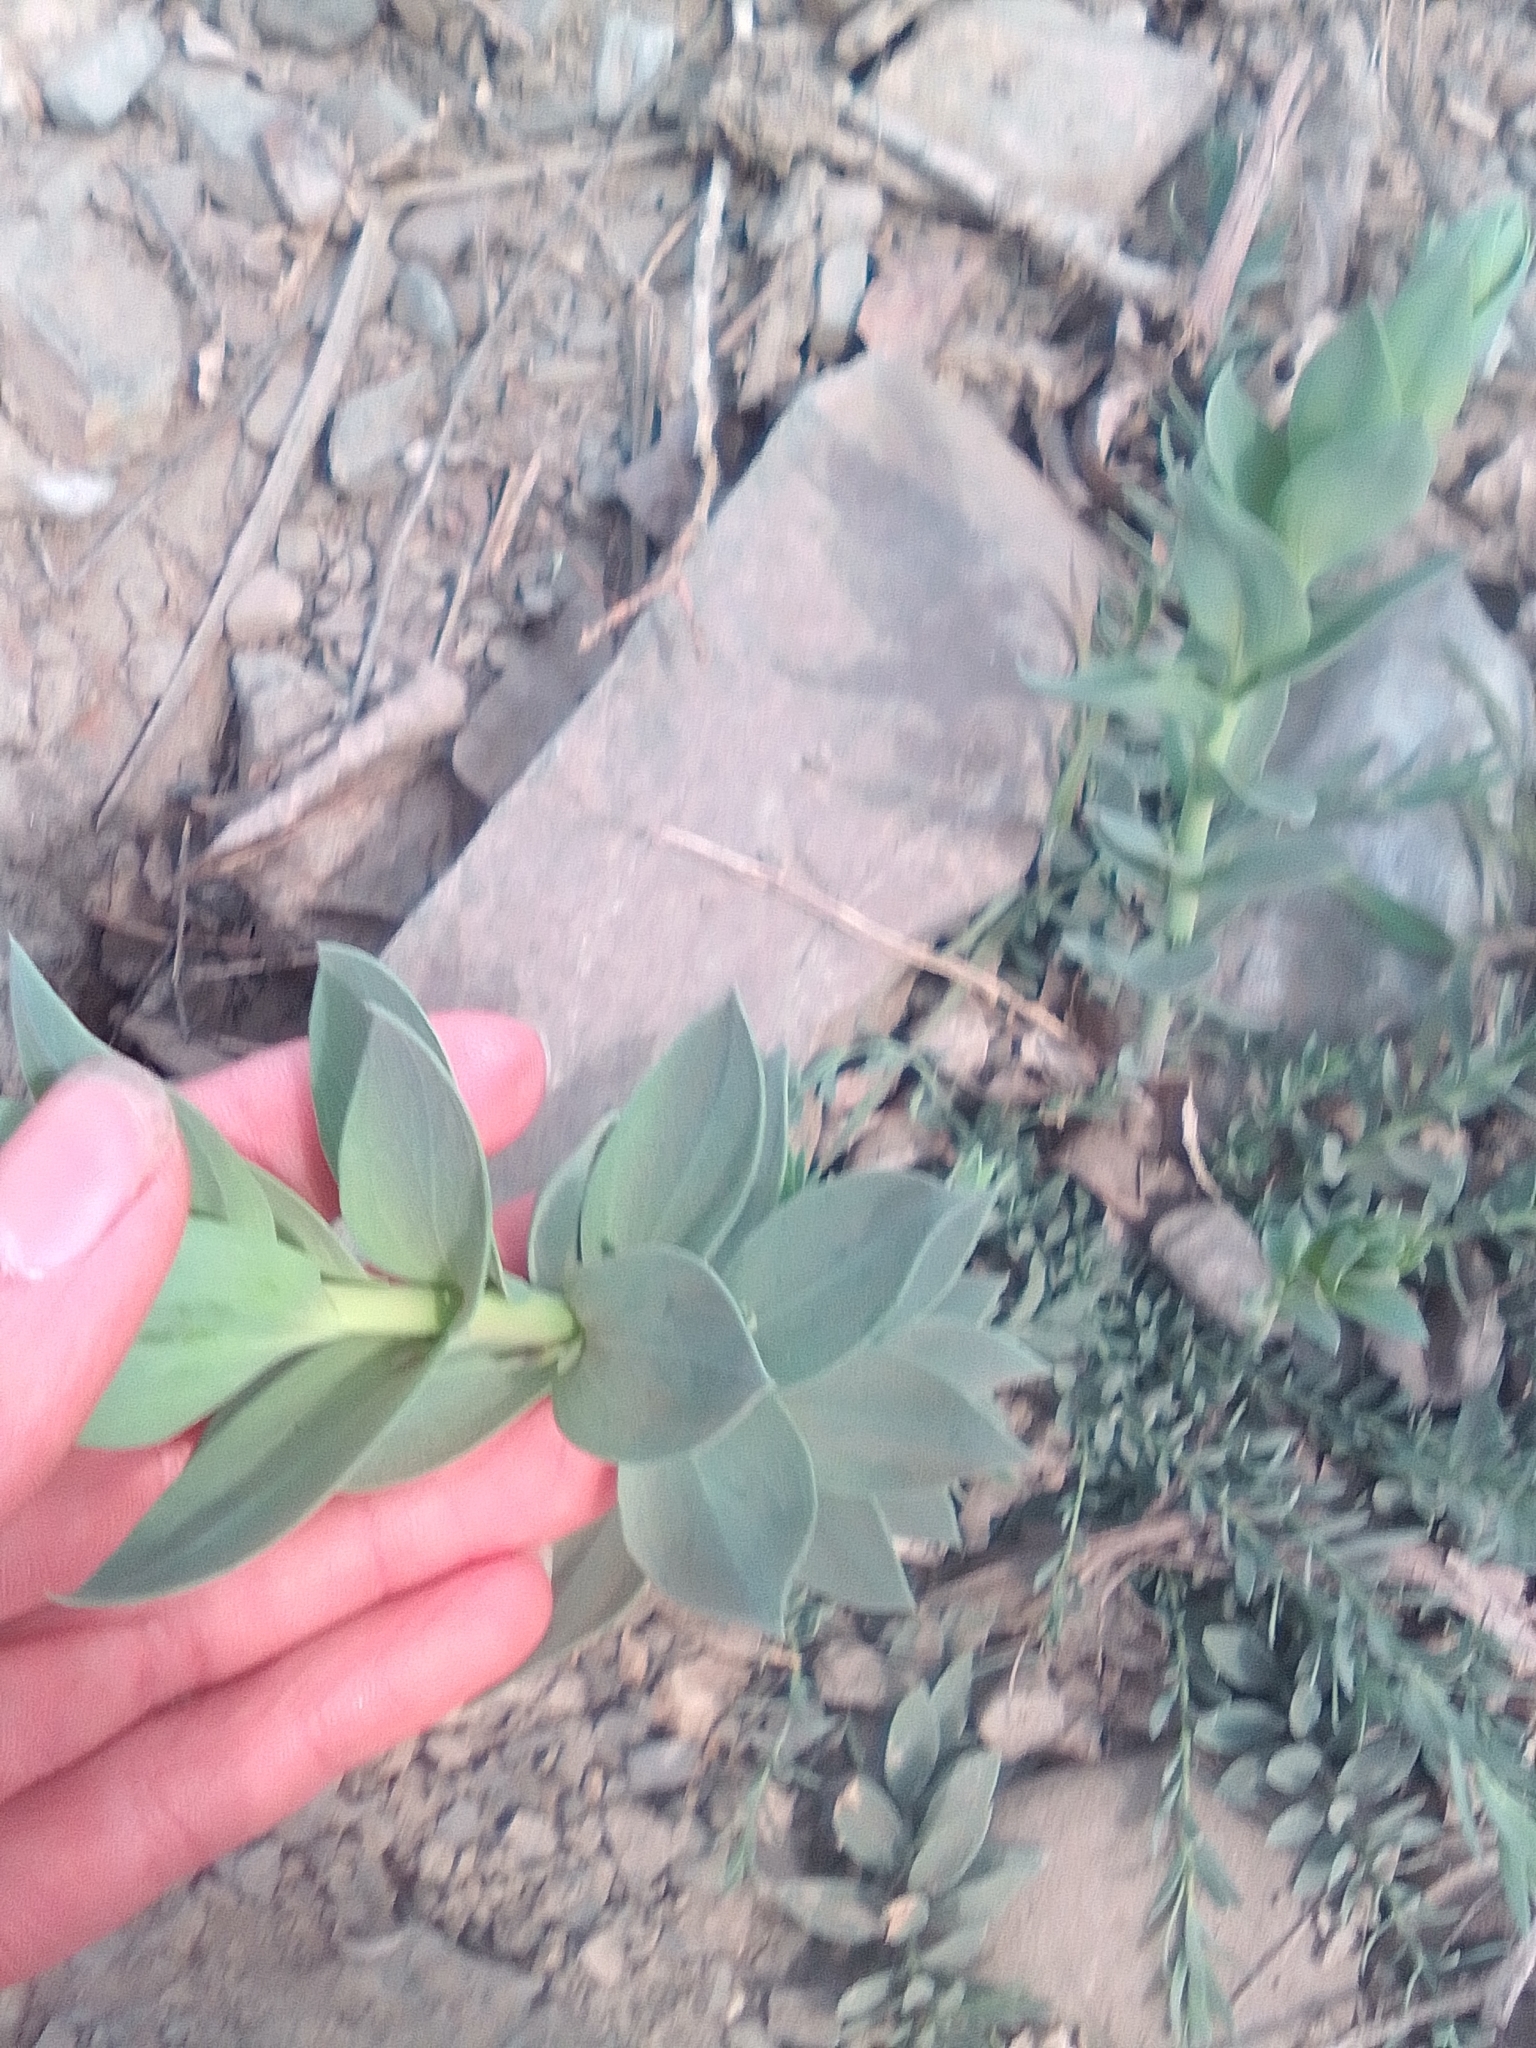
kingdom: Plantae
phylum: Tracheophyta
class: Magnoliopsida
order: Malpighiales
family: Euphorbiaceae
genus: Euphorbia
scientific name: Euphorbia myrsinites
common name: Myrtle spurge
